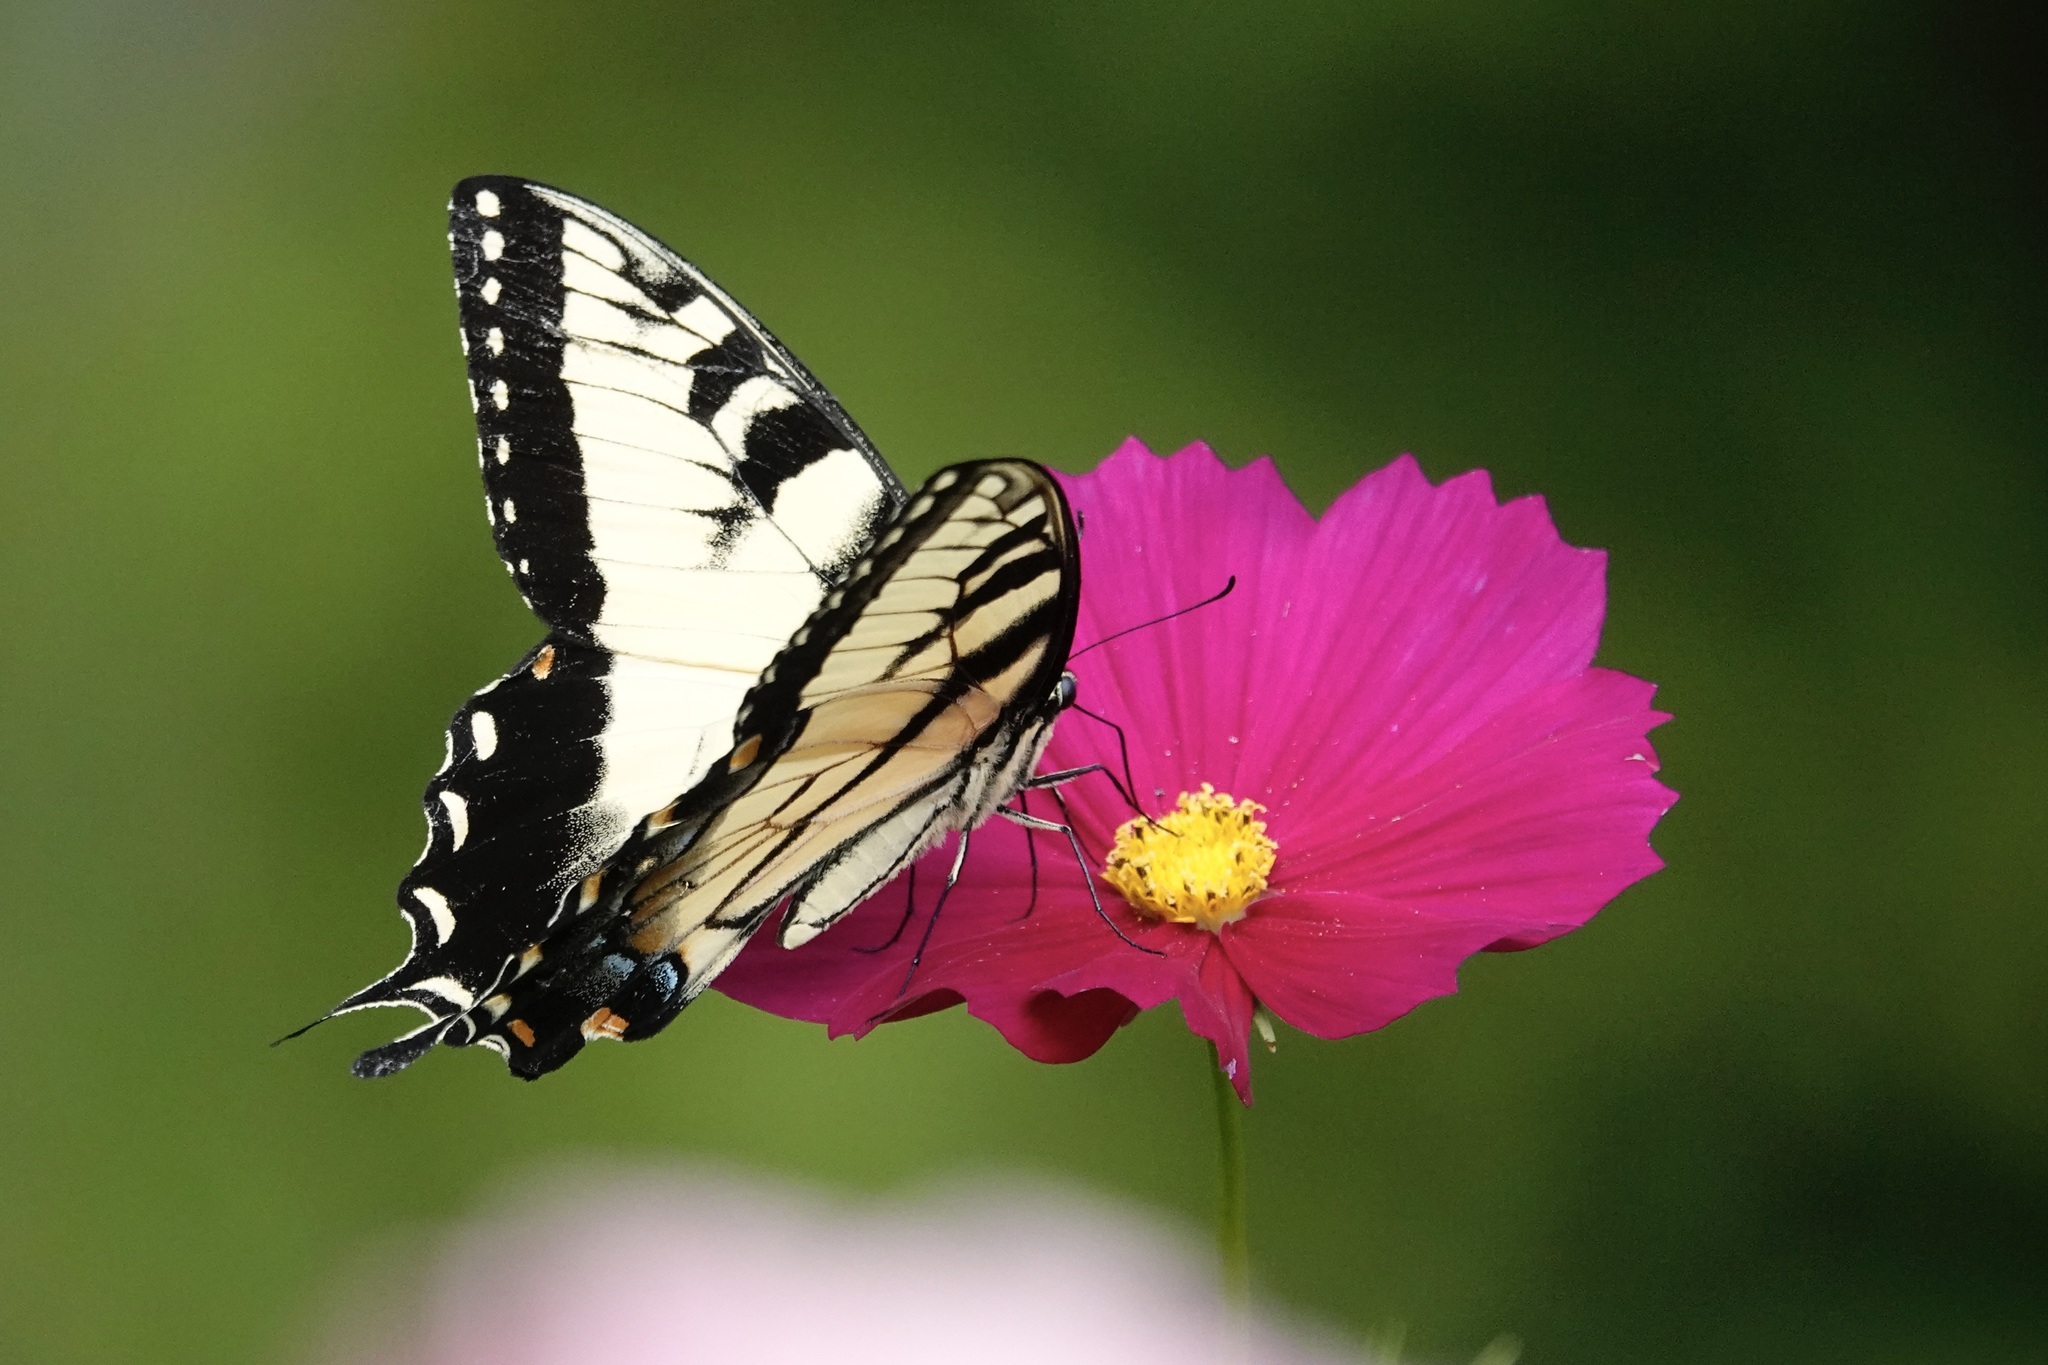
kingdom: Animalia
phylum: Arthropoda
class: Insecta
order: Lepidoptera
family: Papilionidae
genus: Papilio
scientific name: Papilio glaucus
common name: Tiger swallowtail
